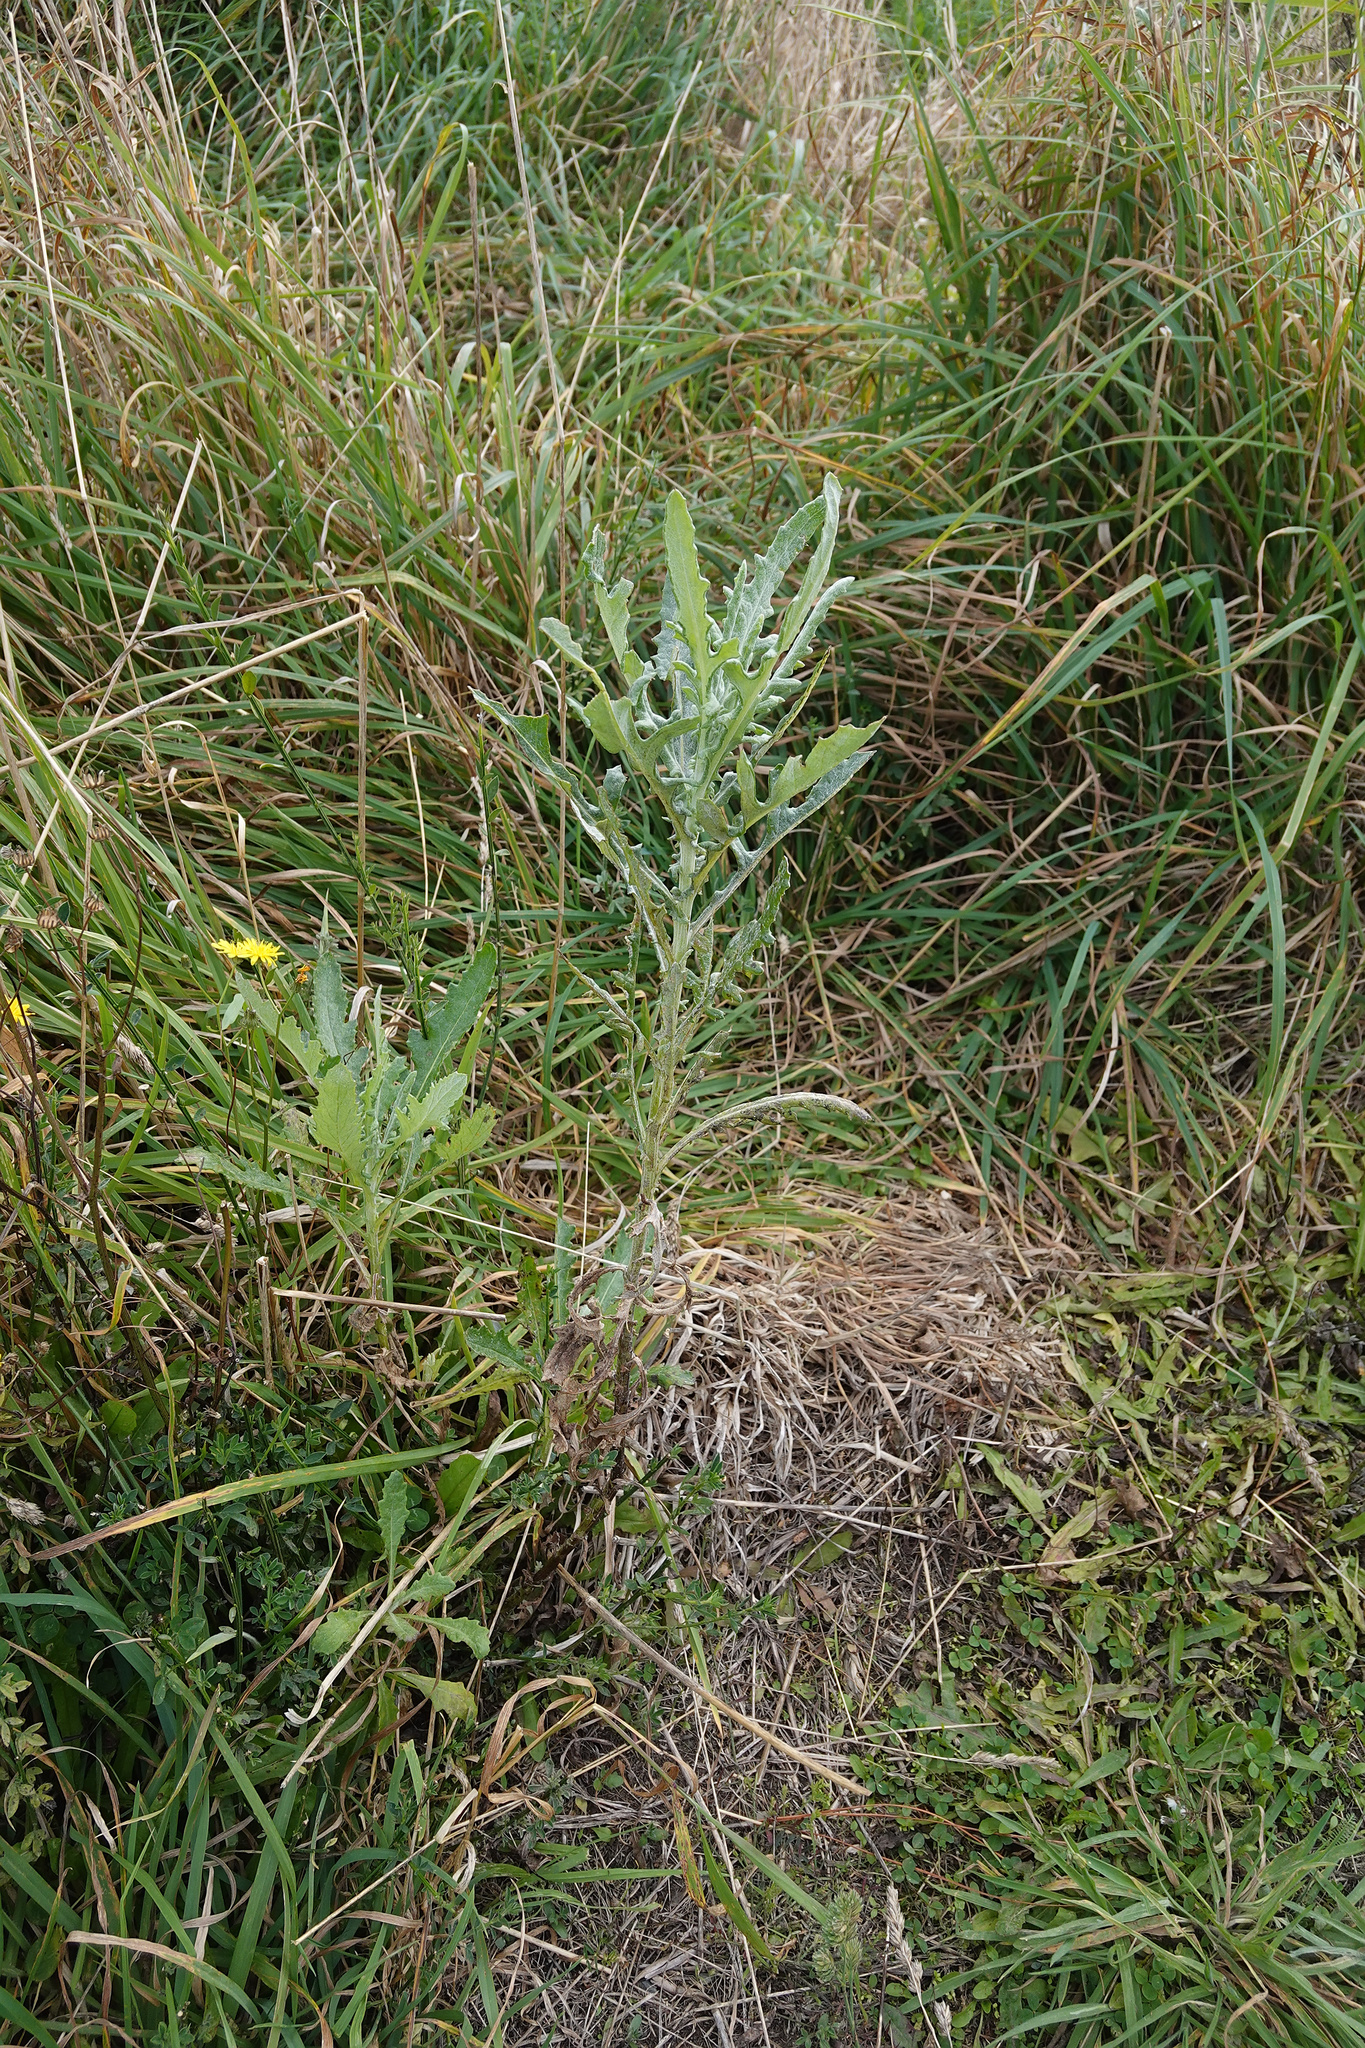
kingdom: Plantae
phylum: Tracheophyta
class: Magnoliopsida
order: Asterales
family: Asteraceae
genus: Senecio
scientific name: Senecio glomeratus
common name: Cutleaf burnweed
